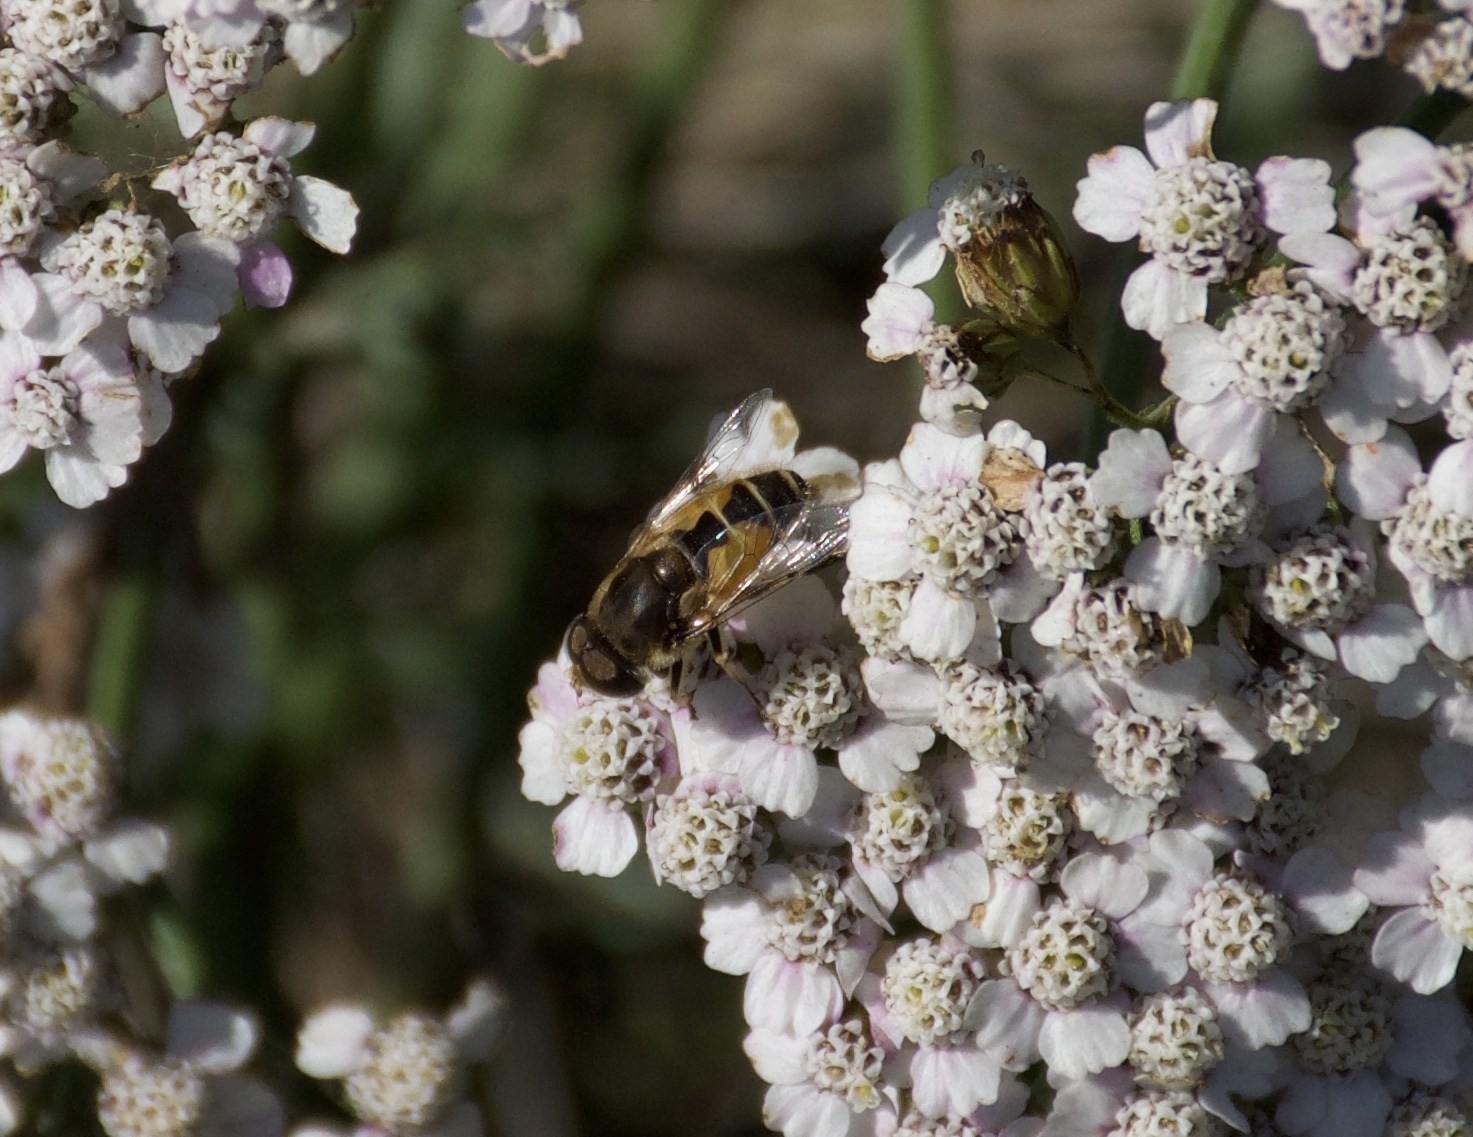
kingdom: Animalia
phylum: Arthropoda
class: Insecta
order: Diptera
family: Syrphidae
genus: Eristalis
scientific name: Eristalis arbustorum
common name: Hover fly
